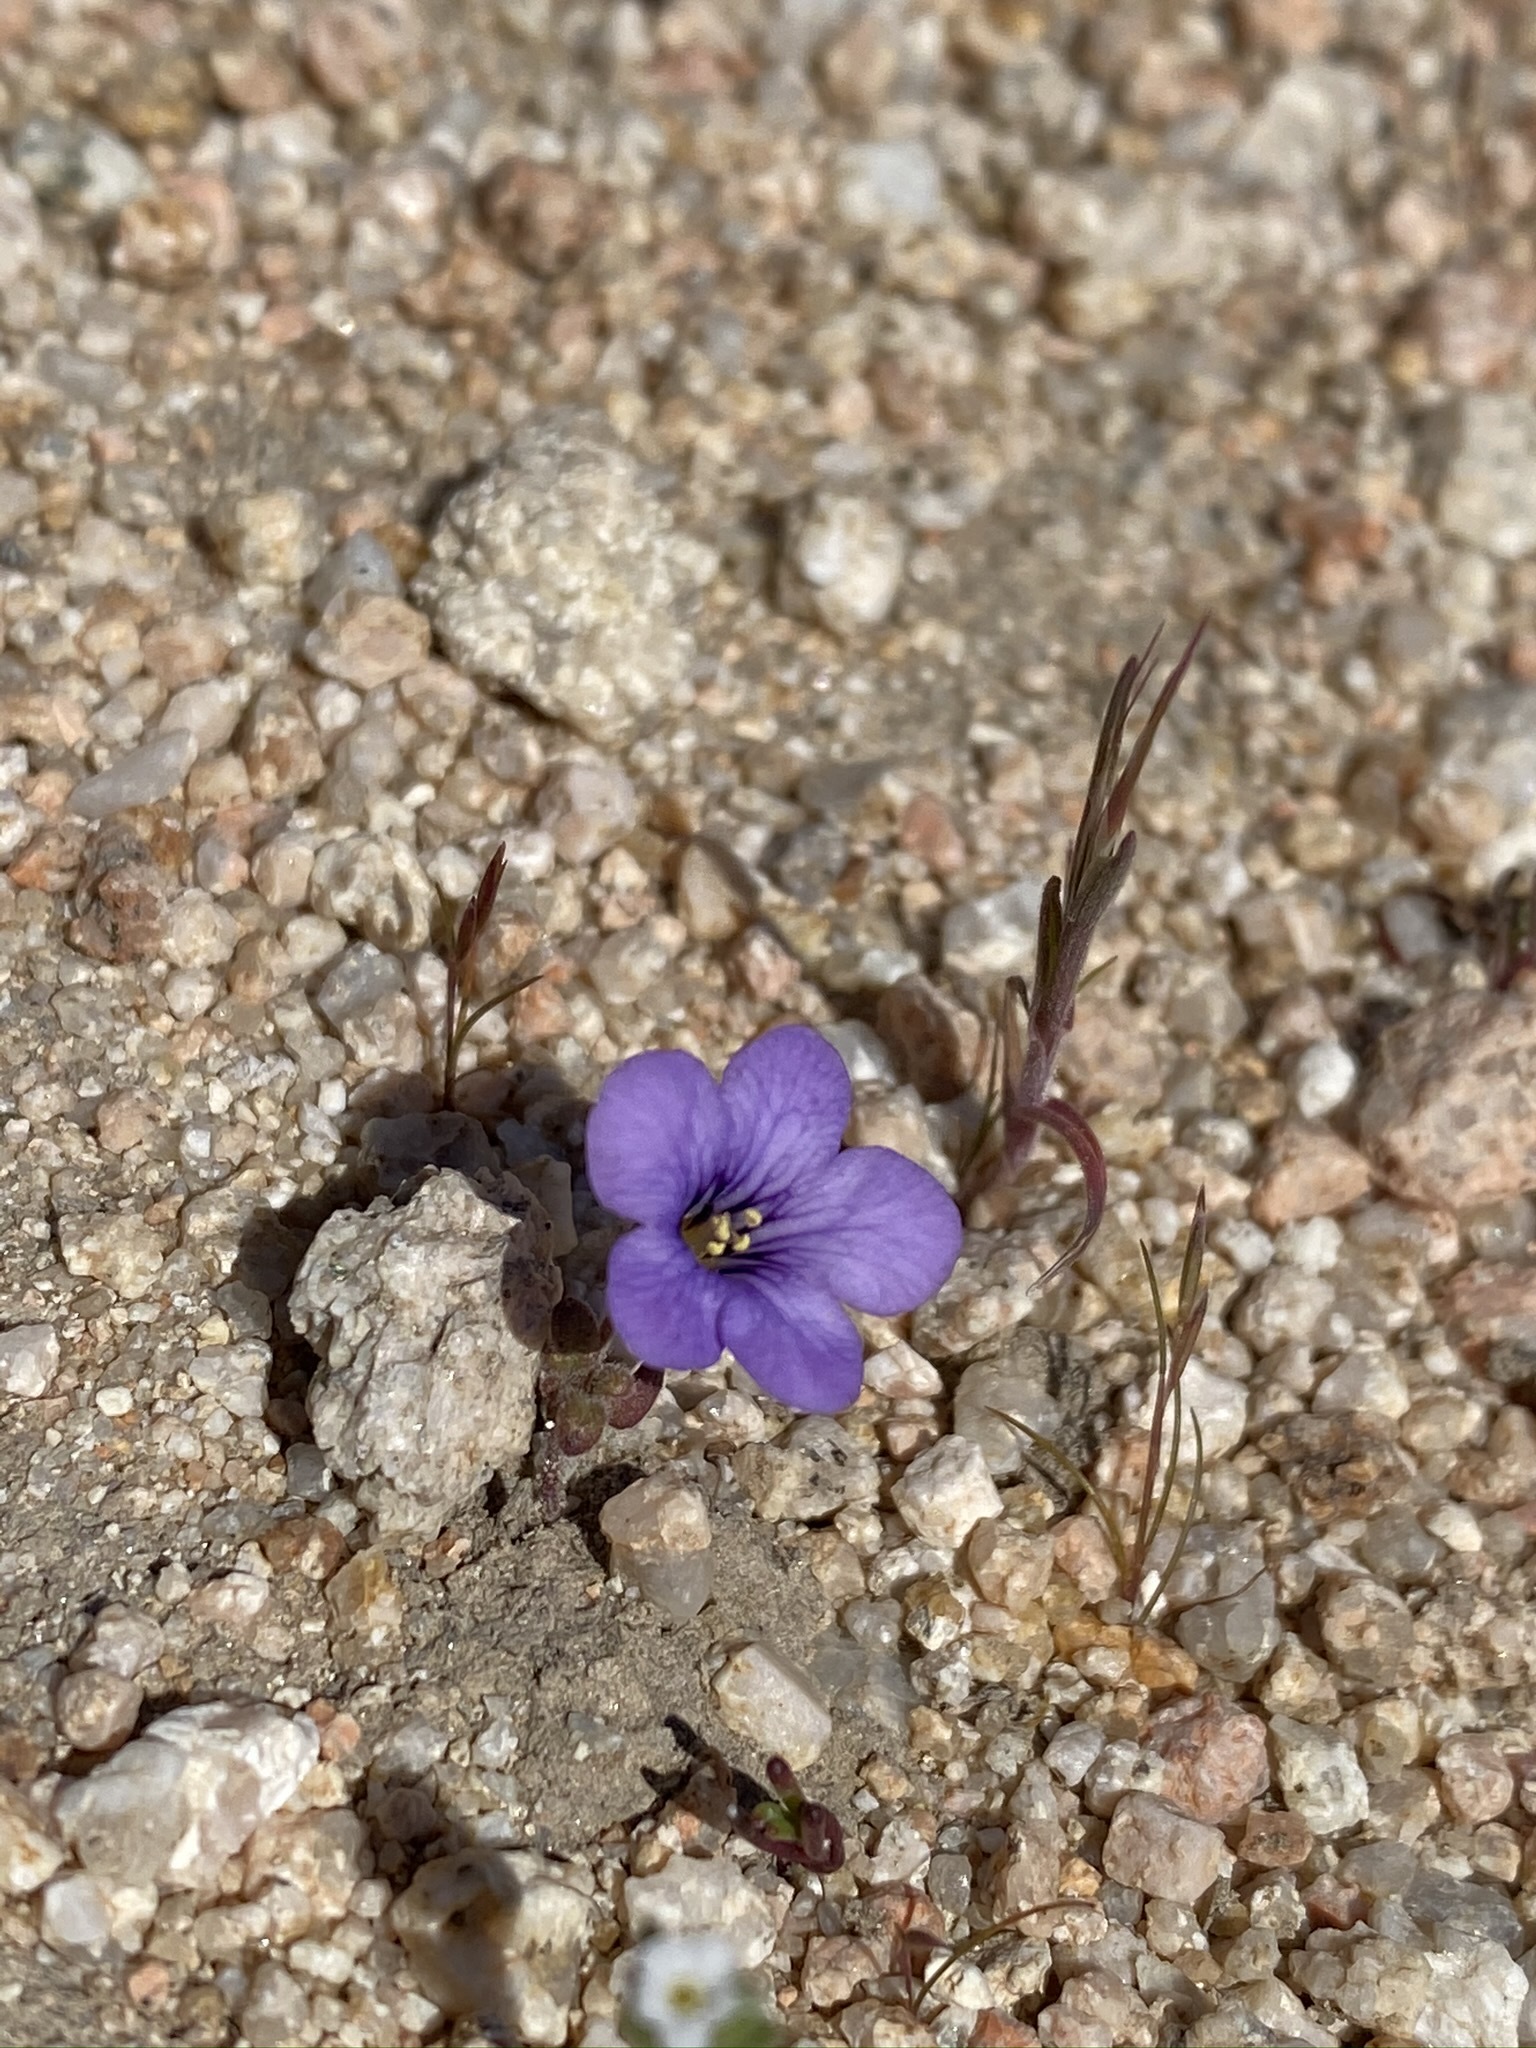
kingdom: Plantae
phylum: Tracheophyta
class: Magnoliopsida
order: Boraginales
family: Hydrophyllaceae
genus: Phacelia
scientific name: Phacelia fremontii
